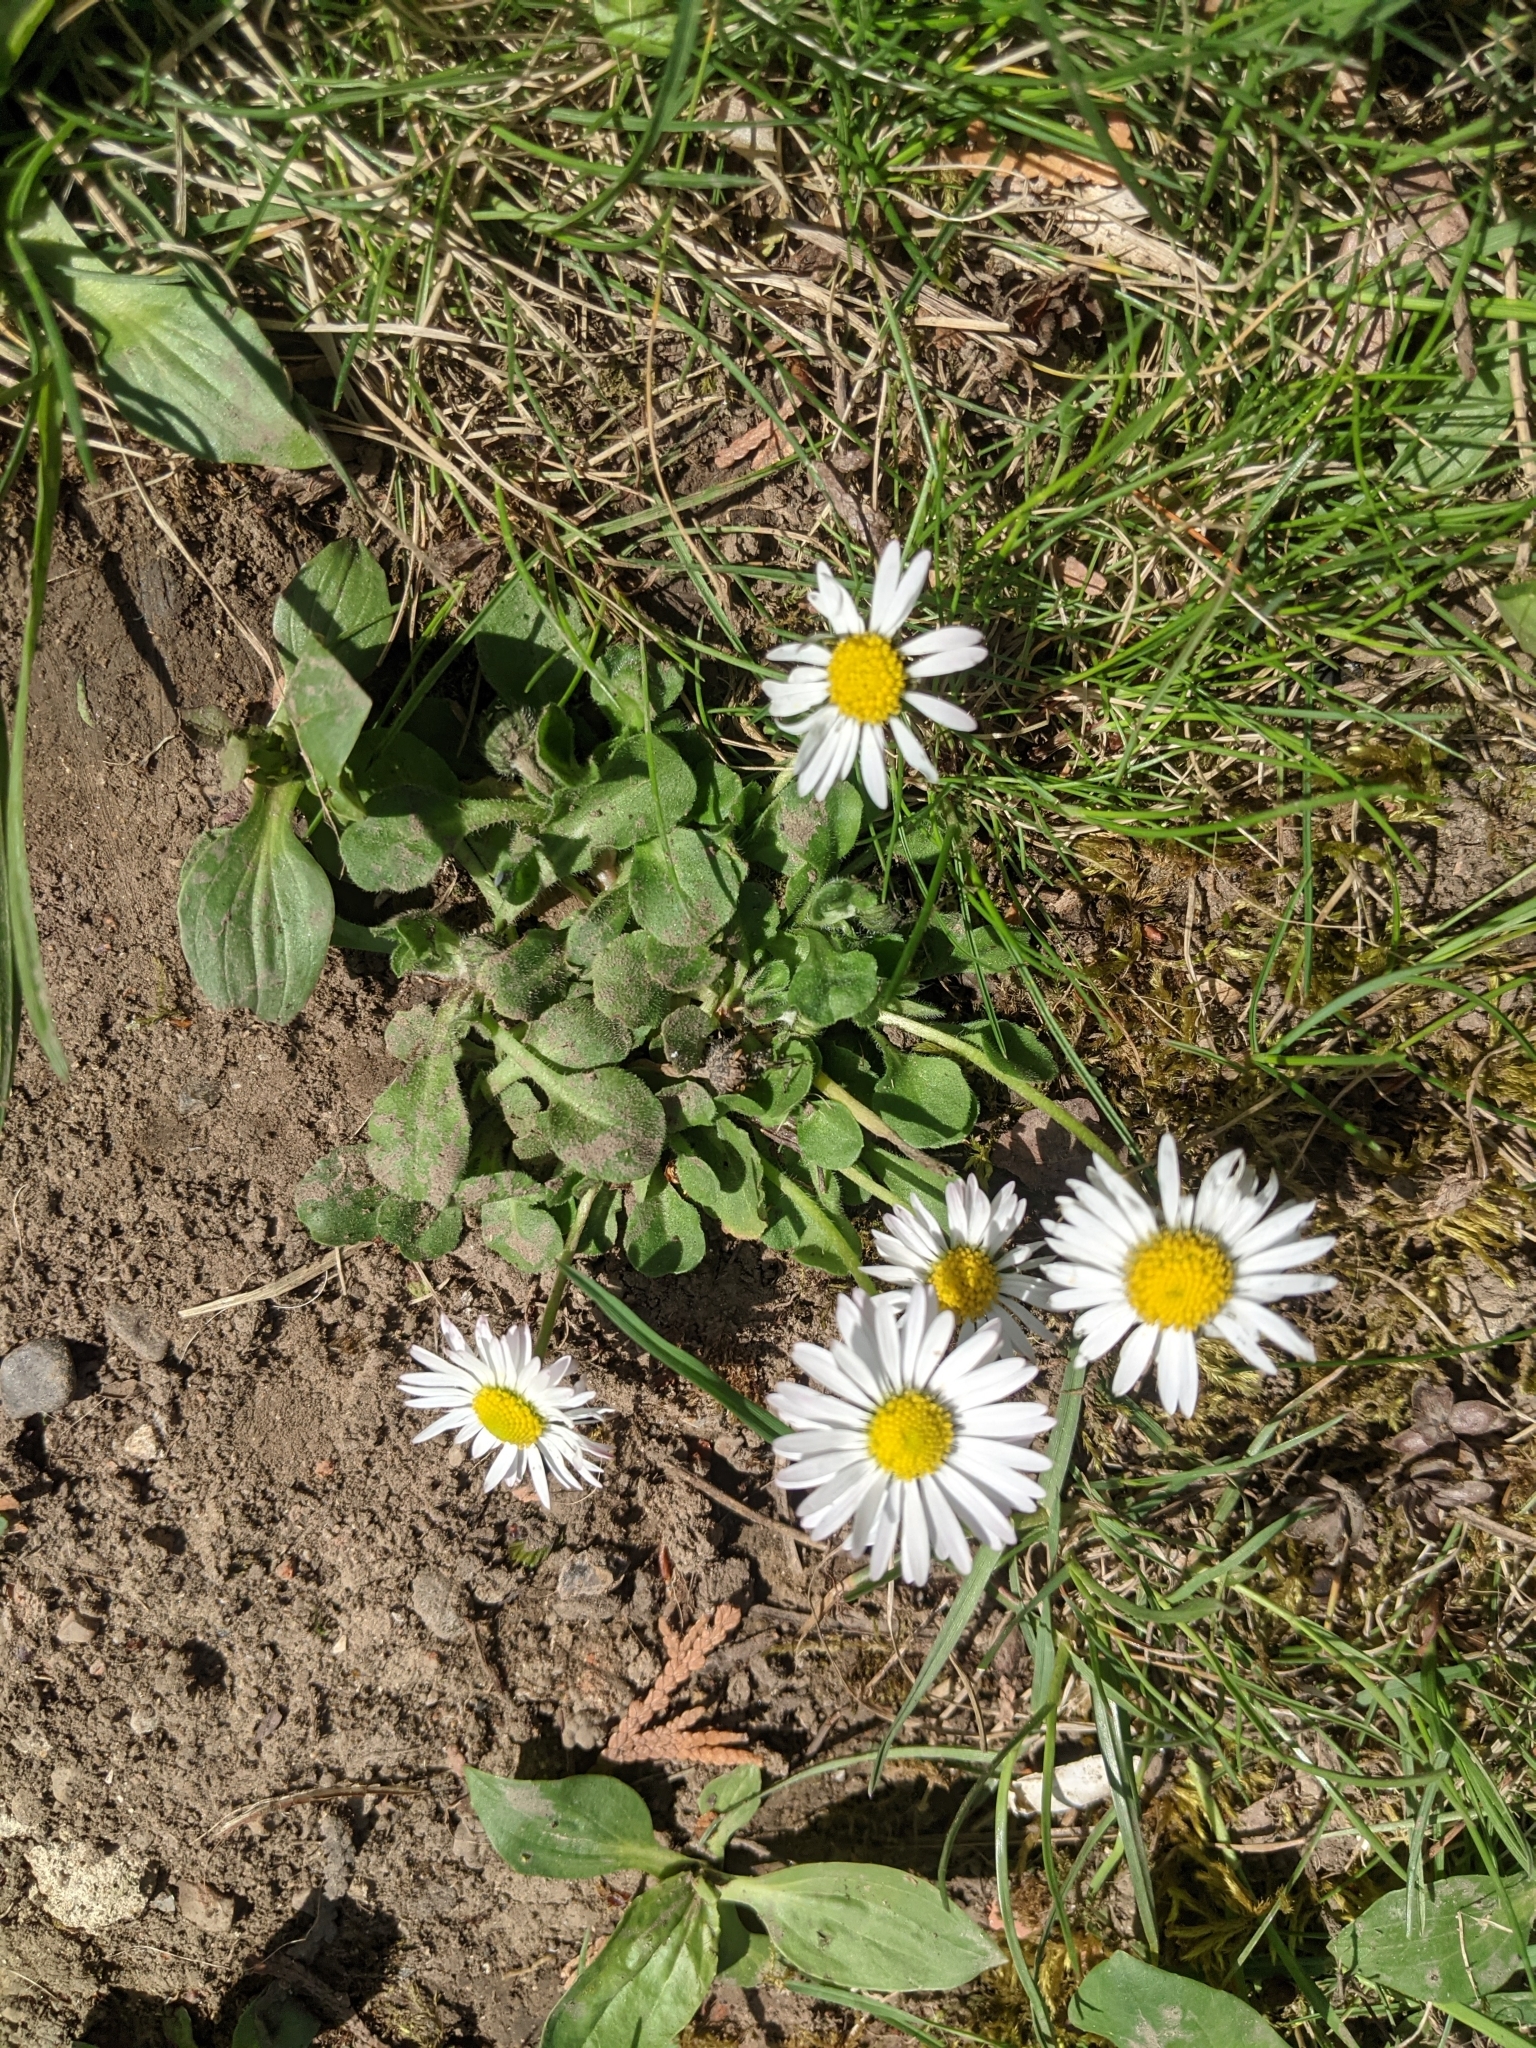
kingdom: Plantae
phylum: Tracheophyta
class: Magnoliopsida
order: Asterales
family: Asteraceae
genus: Bellis
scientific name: Bellis perennis
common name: Lawndaisy
